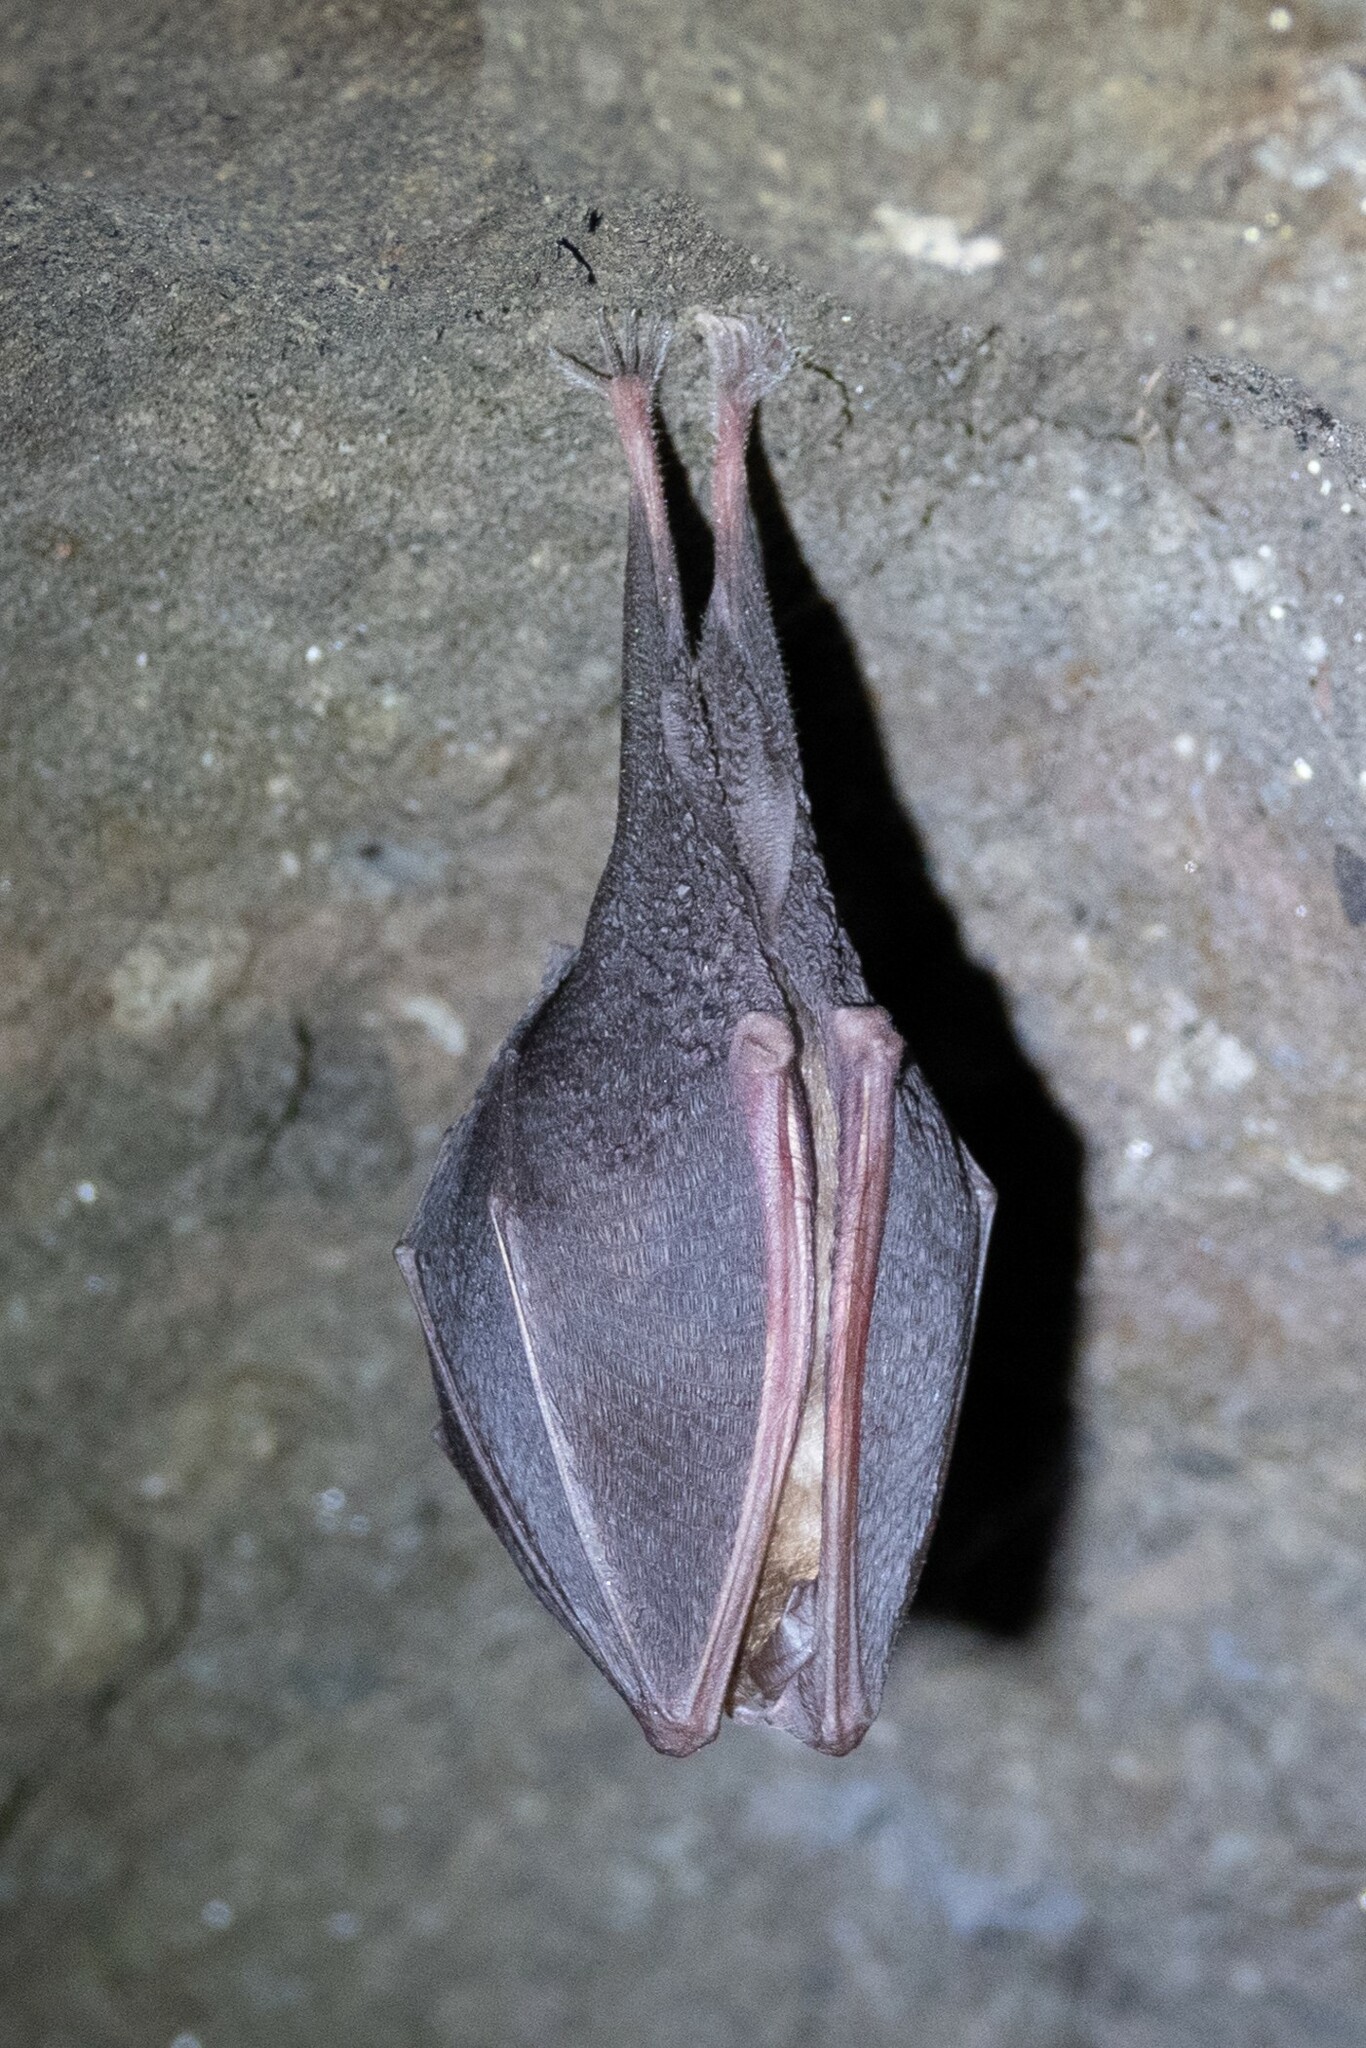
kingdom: Animalia
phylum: Chordata
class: Mammalia
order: Chiroptera
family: Rhinolophidae
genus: Rhinolophus
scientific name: Rhinolophus hipposideros
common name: Lesser horseshoe bat
